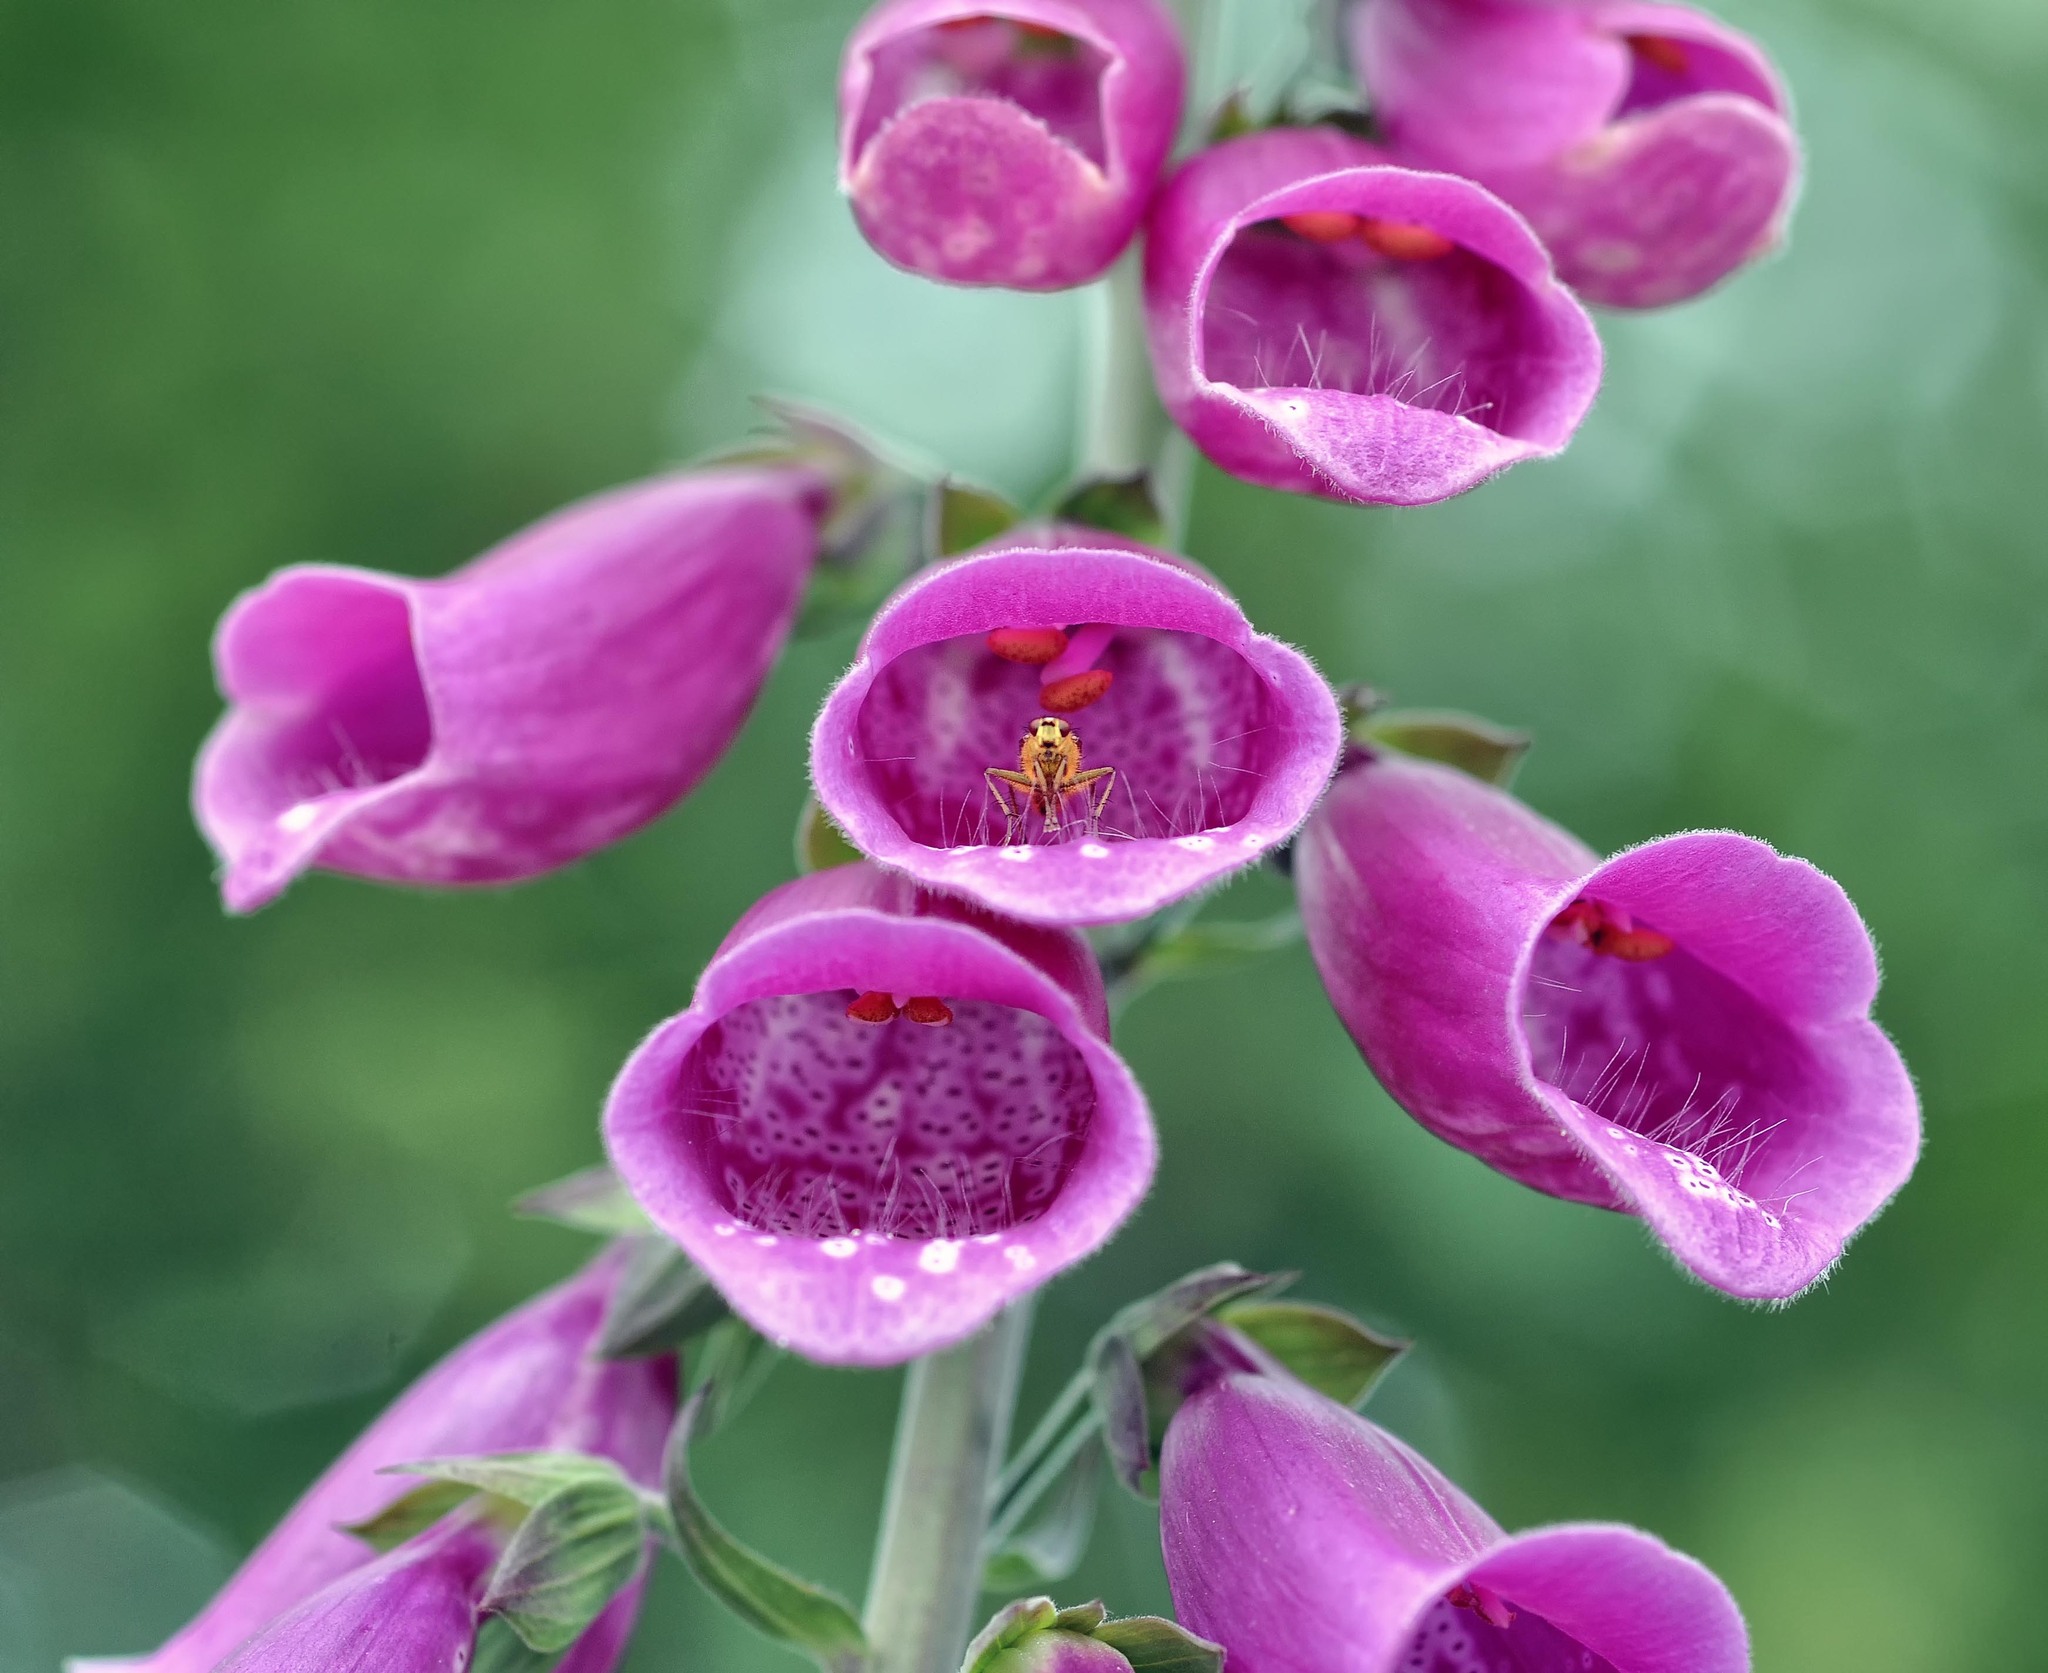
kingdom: Plantae
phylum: Tracheophyta
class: Magnoliopsida
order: Lamiales
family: Plantaginaceae
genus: Digitalis
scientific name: Digitalis purpurea
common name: Foxglove
